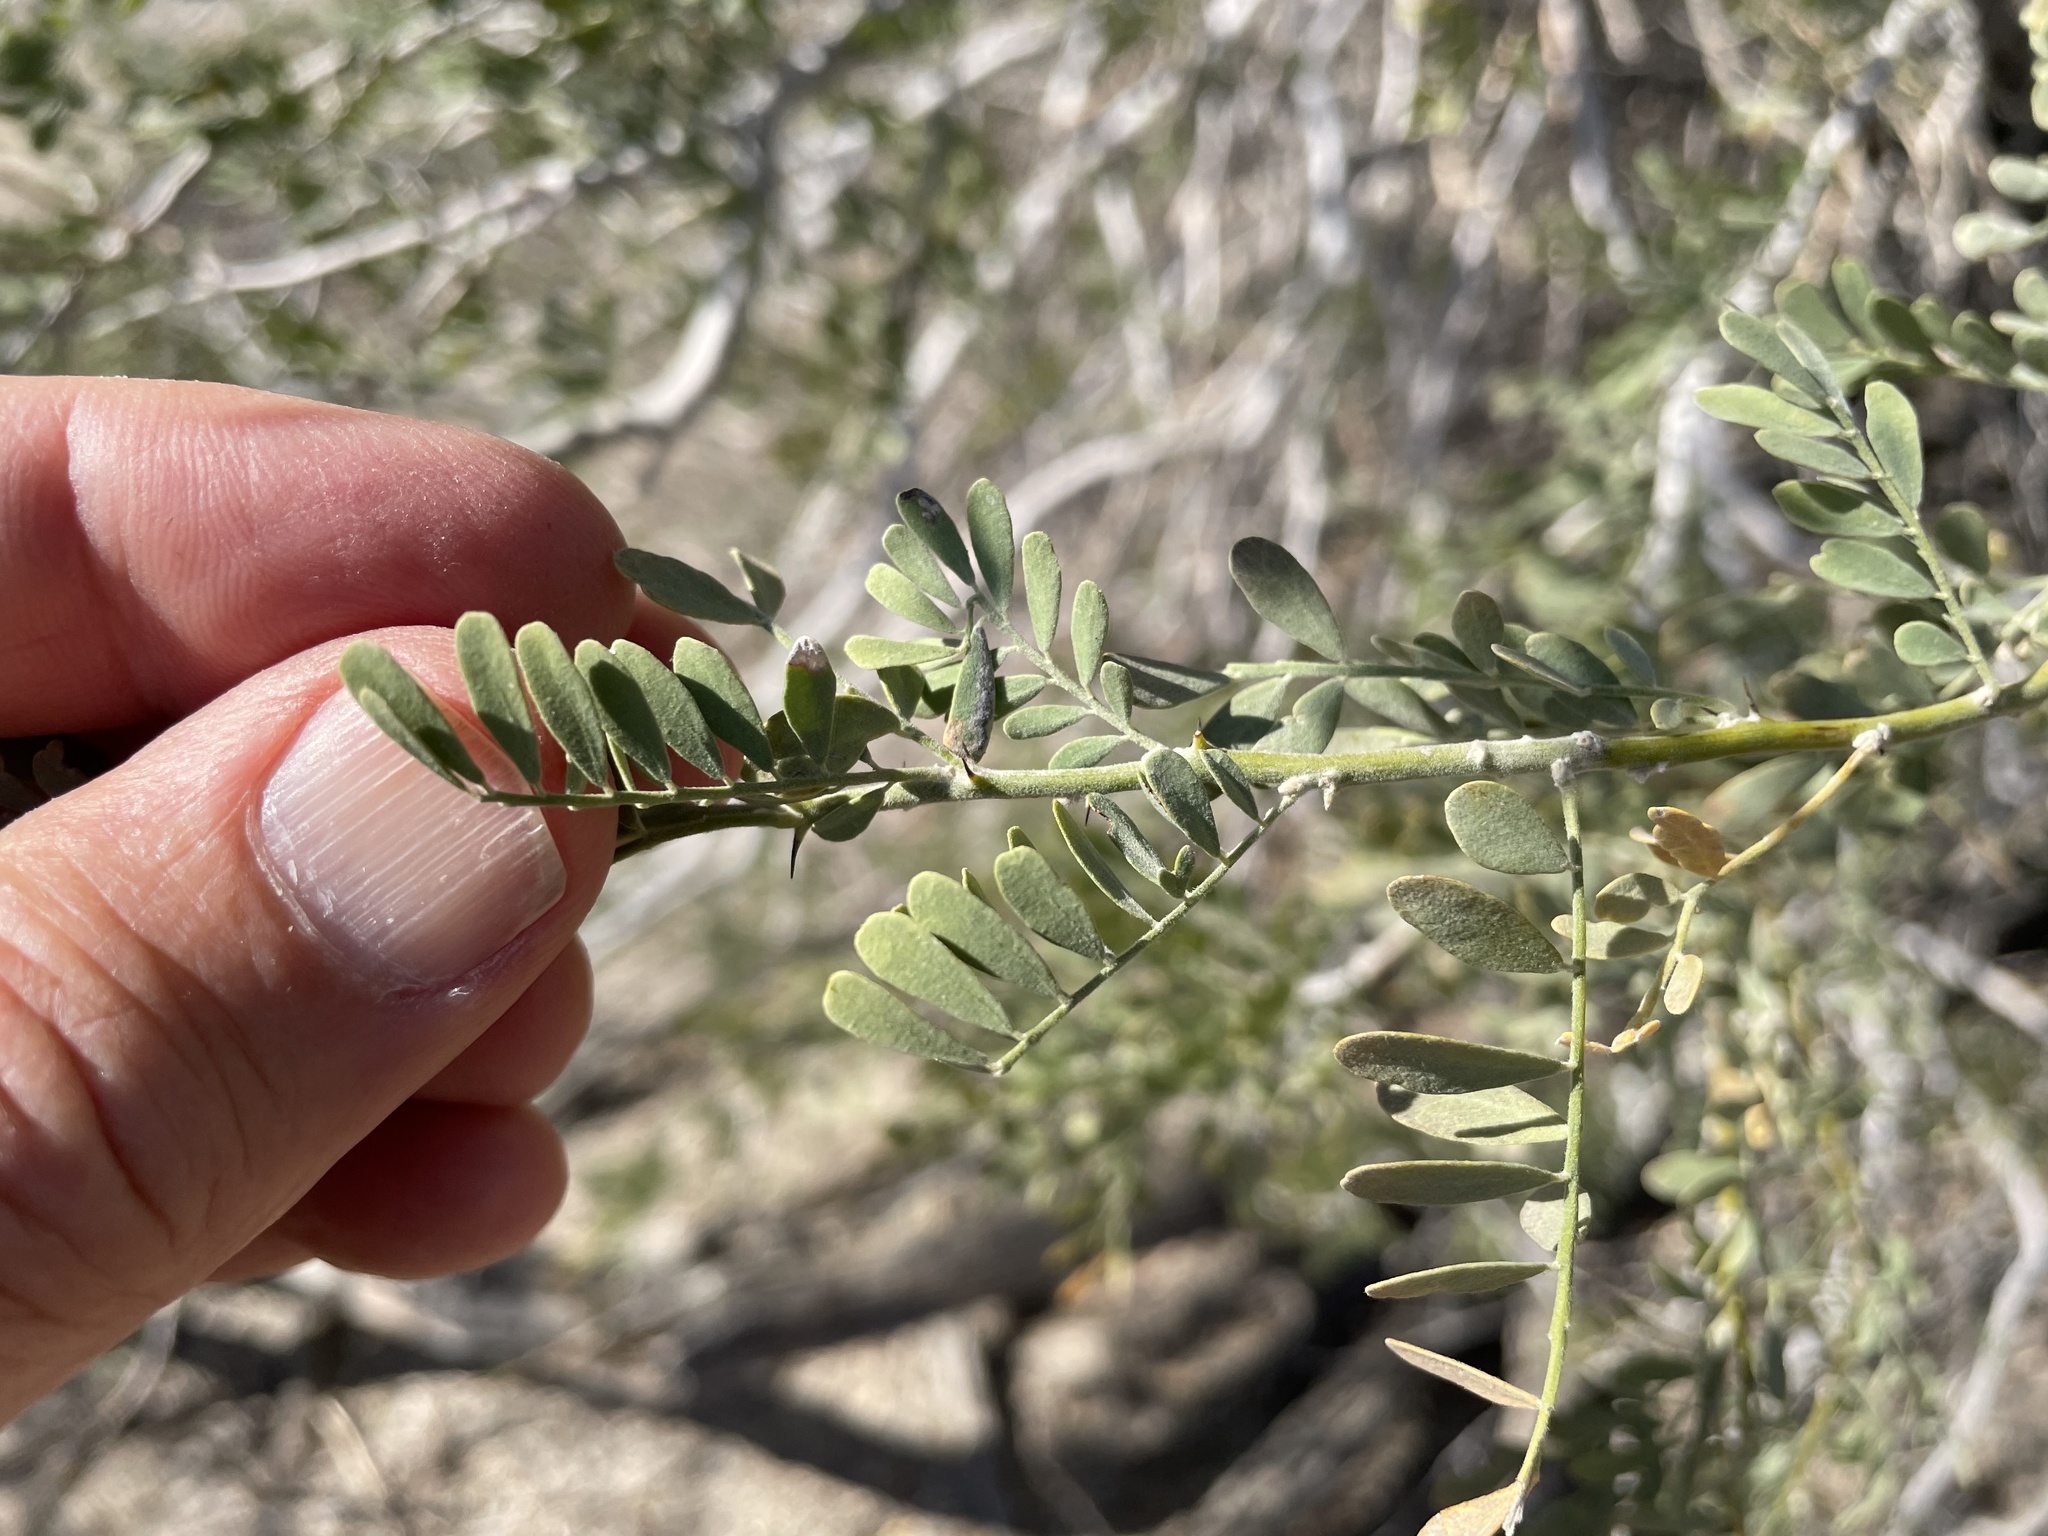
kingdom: Plantae
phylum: Tracheophyta
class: Magnoliopsida
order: Fabales
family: Fabaceae
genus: Olneya
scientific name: Olneya tesota
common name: Desert ironwood
